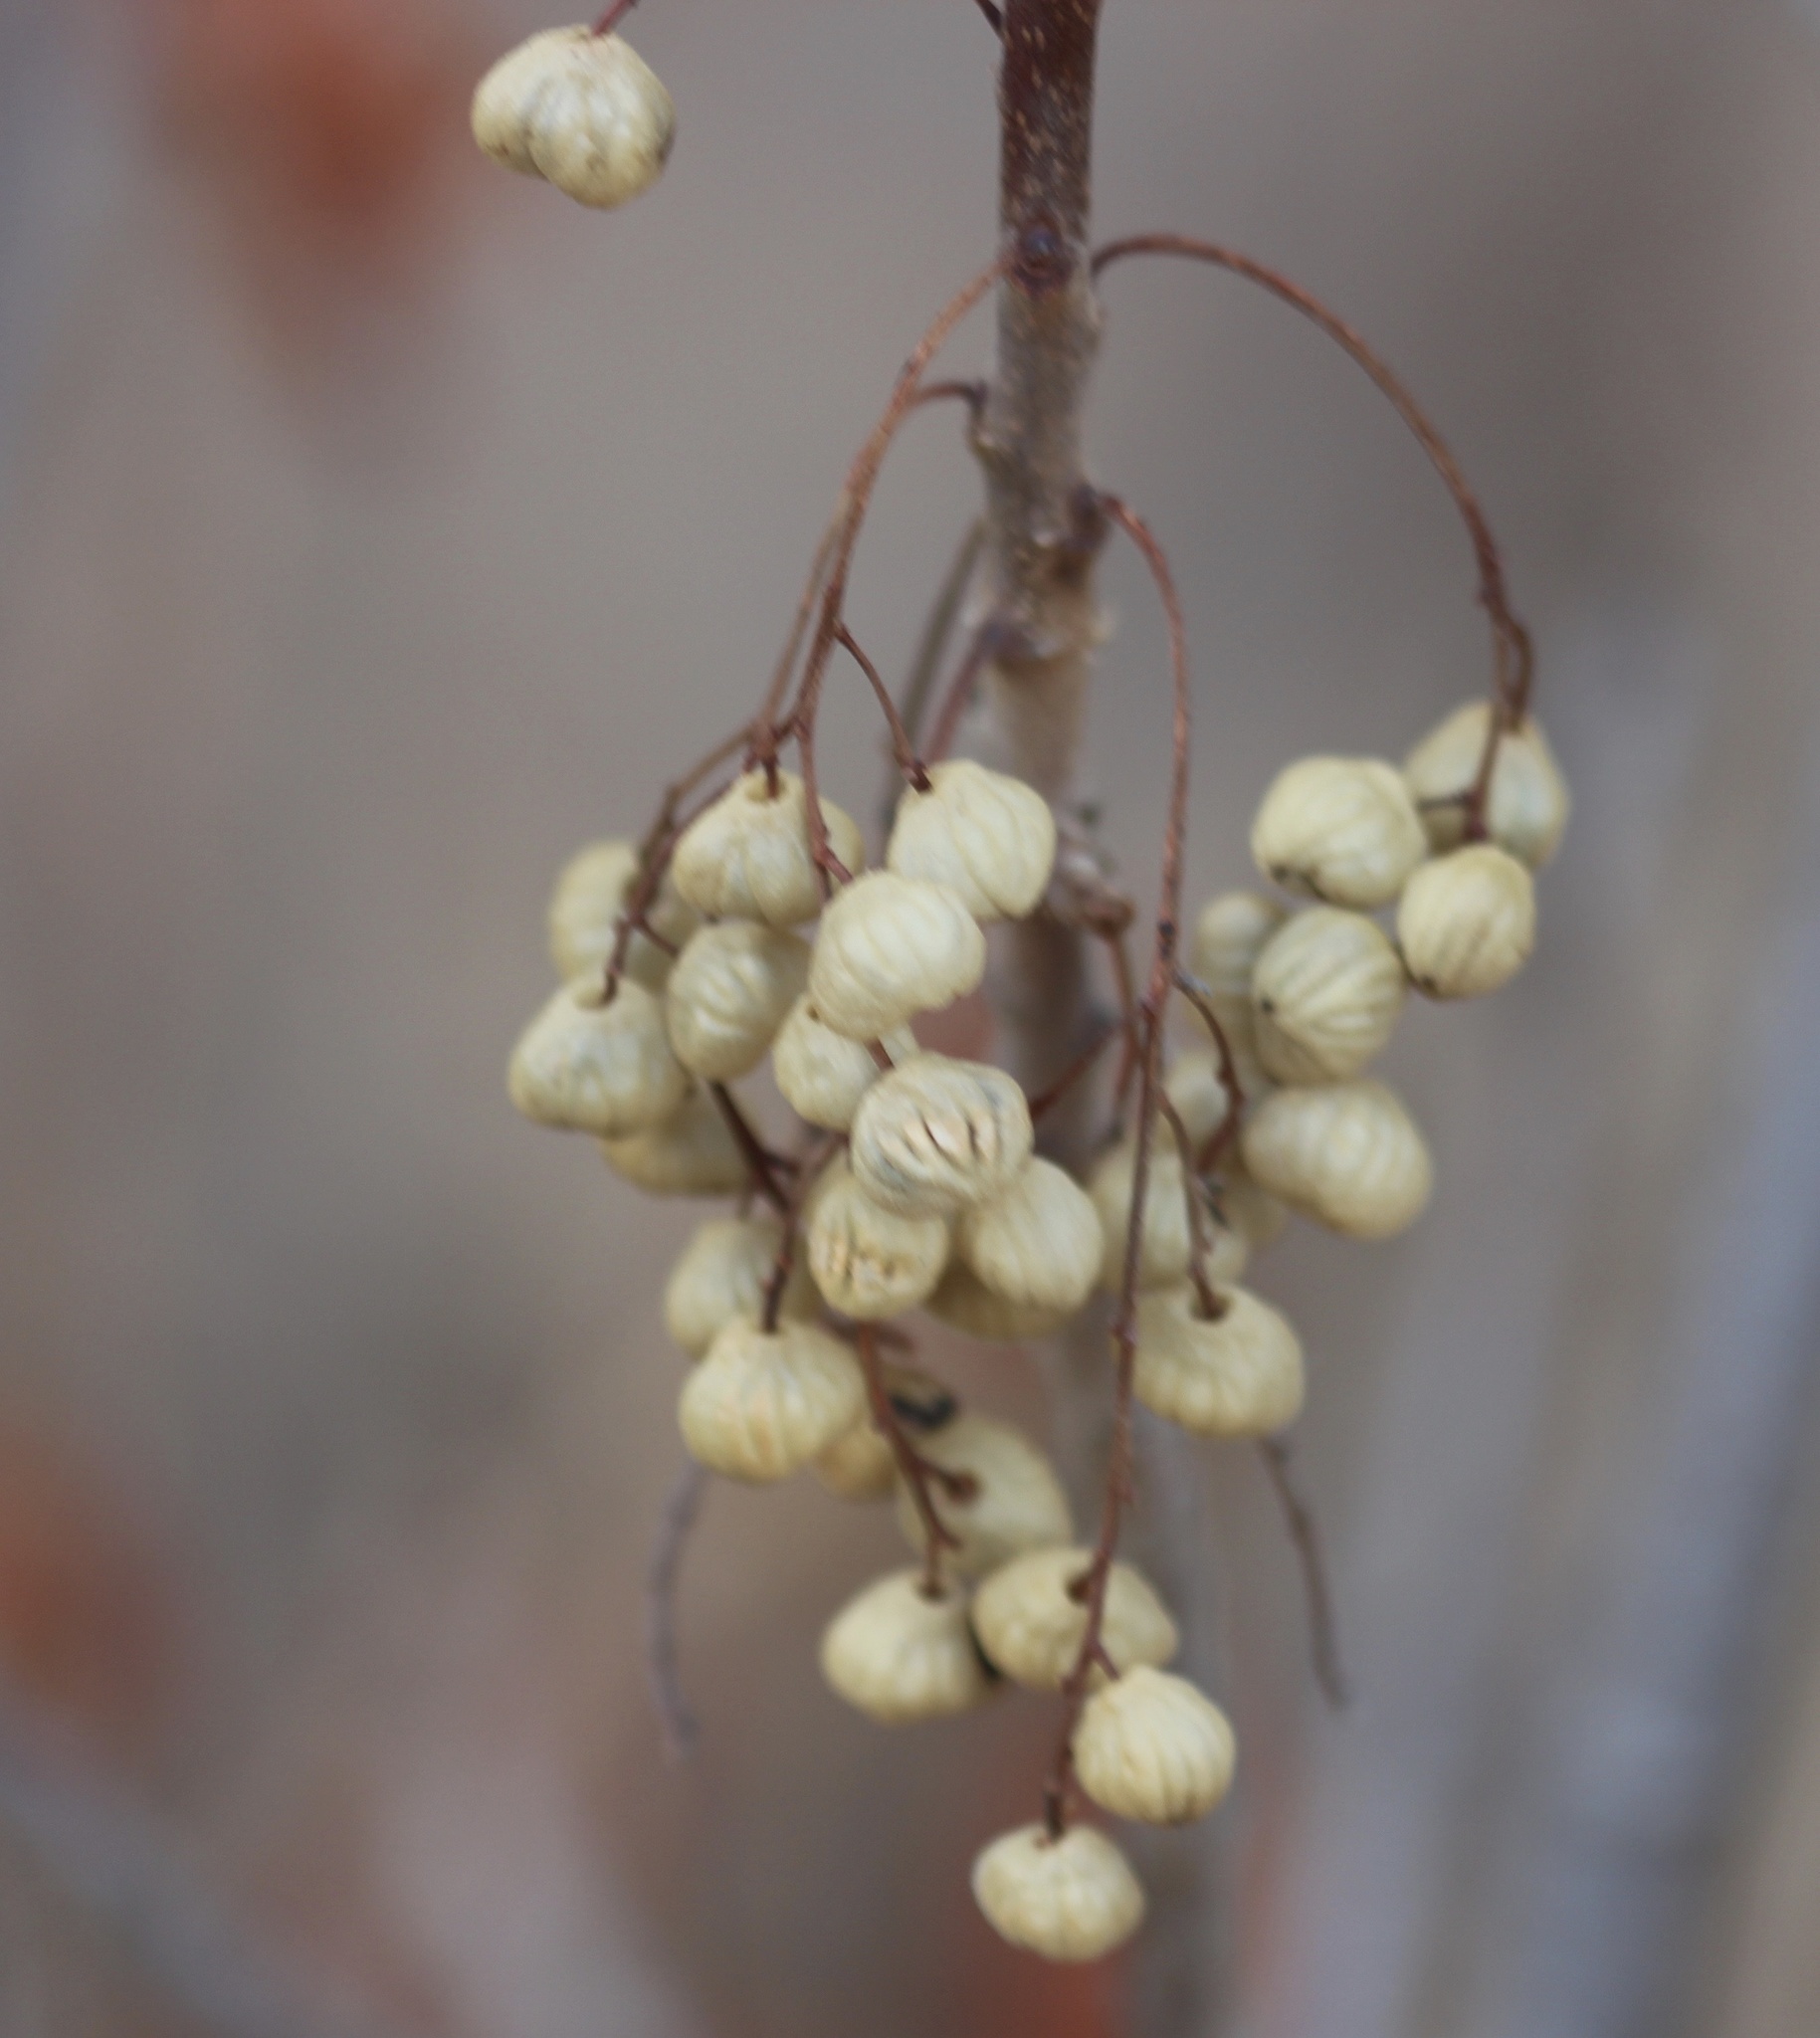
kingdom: Plantae
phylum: Tracheophyta
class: Magnoliopsida
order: Sapindales
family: Anacardiaceae
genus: Toxicodendron
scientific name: Toxicodendron diversilobum
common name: Pacific poison-oak
